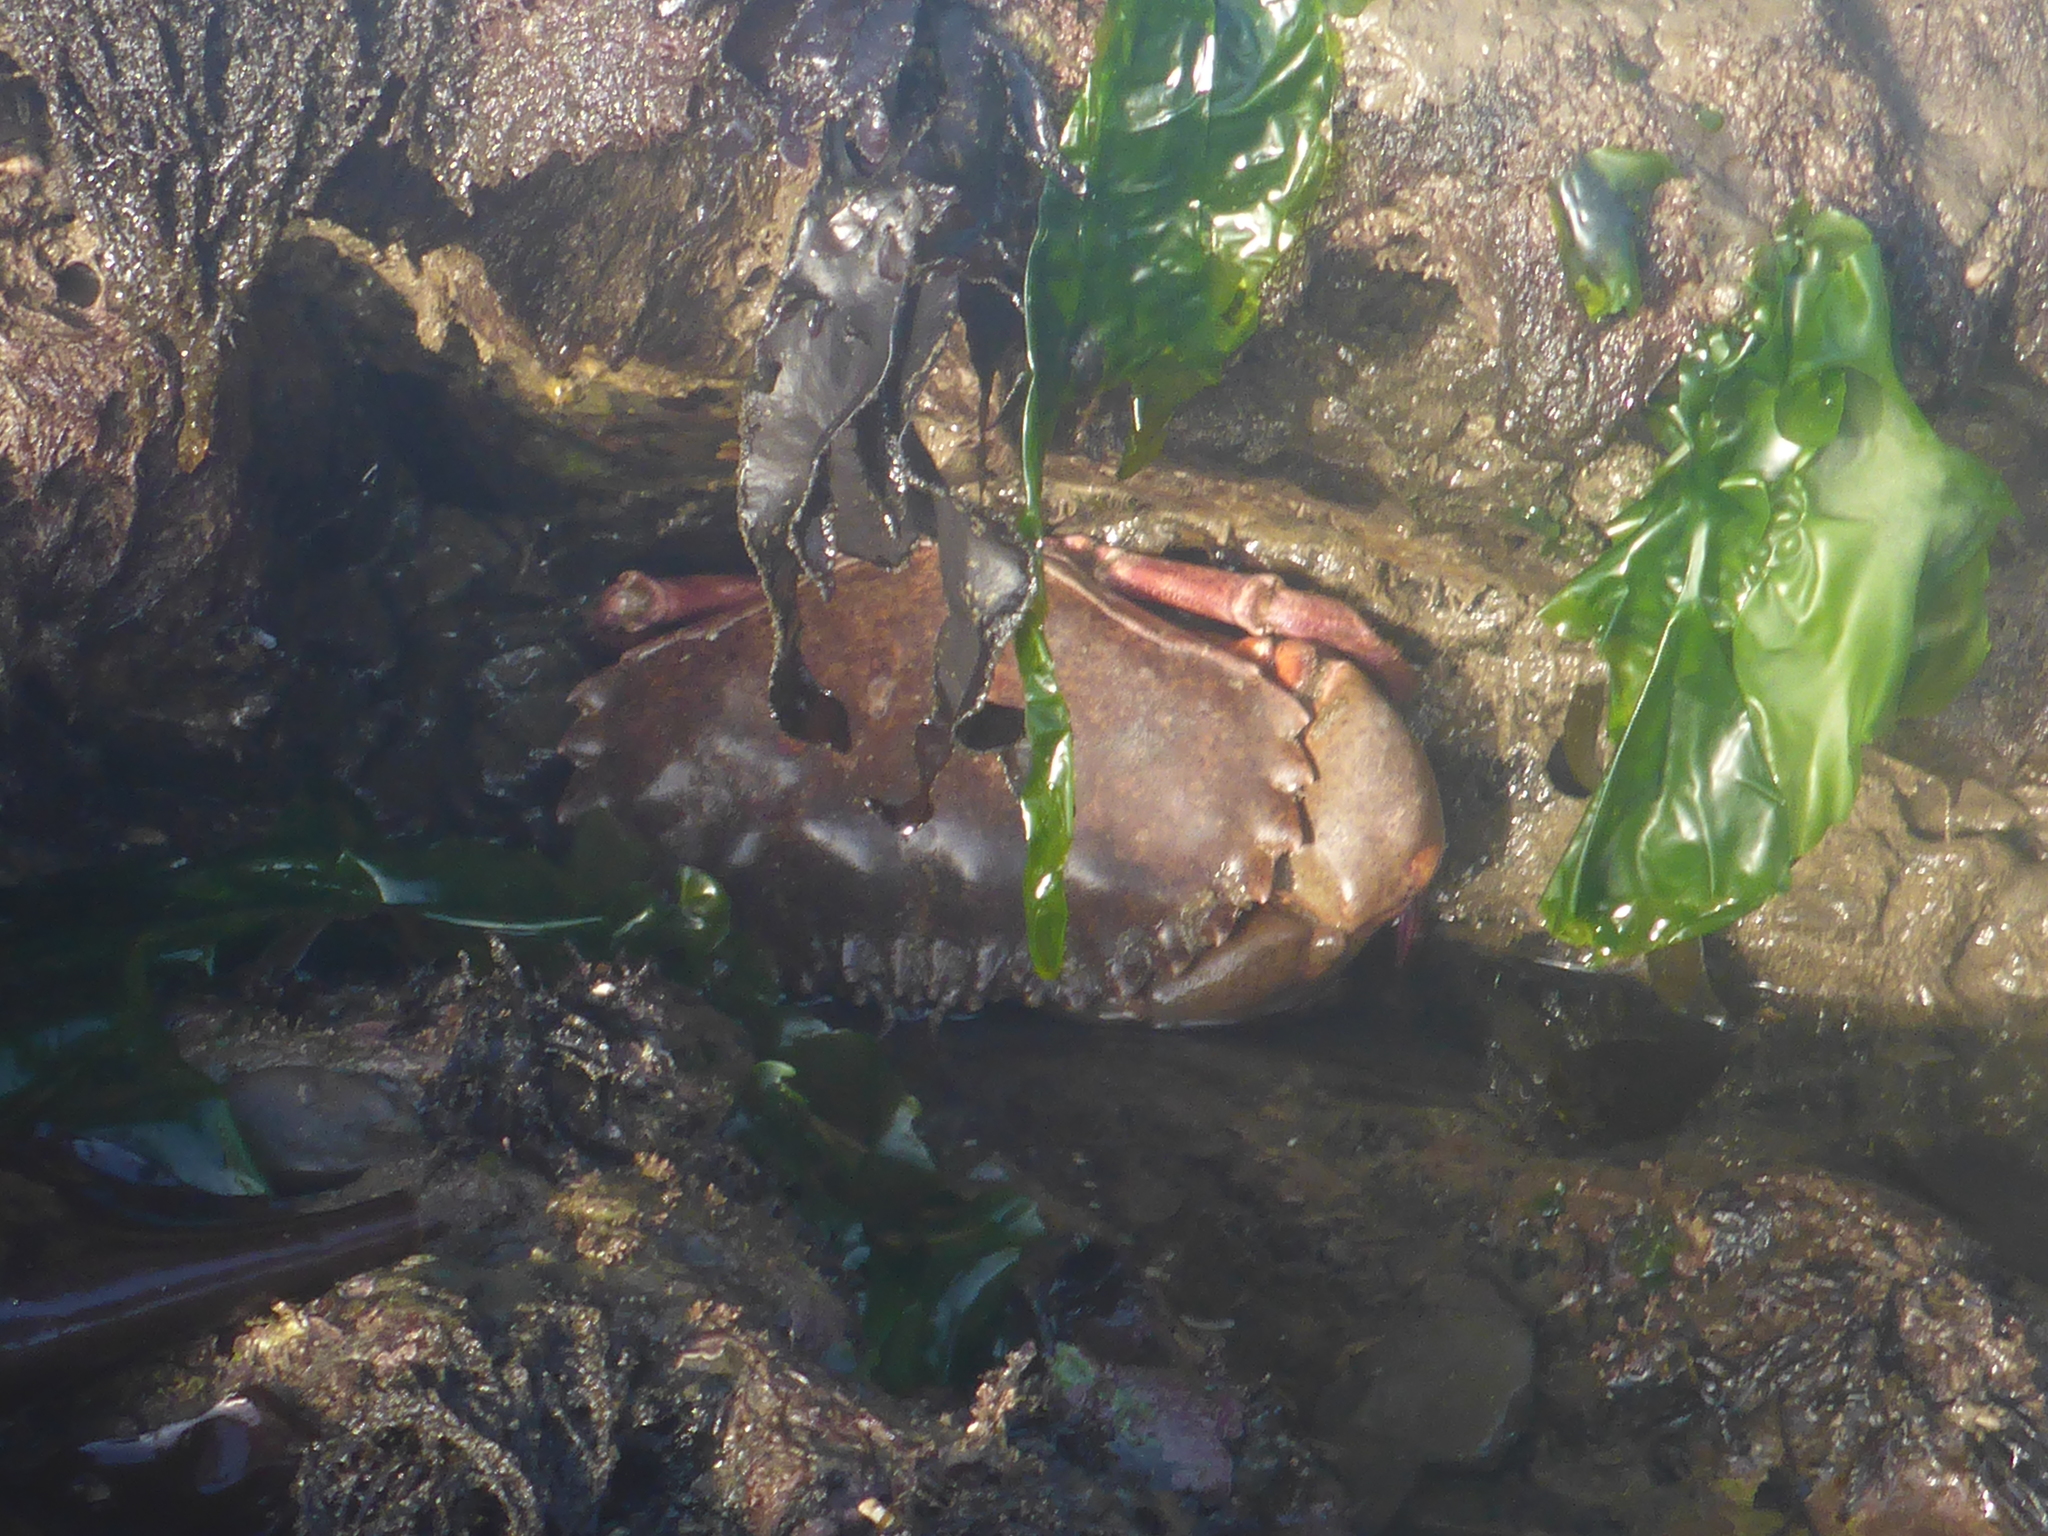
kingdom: Animalia
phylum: Arthropoda
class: Malacostraca
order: Decapoda
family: Cancridae
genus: Romaleon
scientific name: Romaleon antennarium
